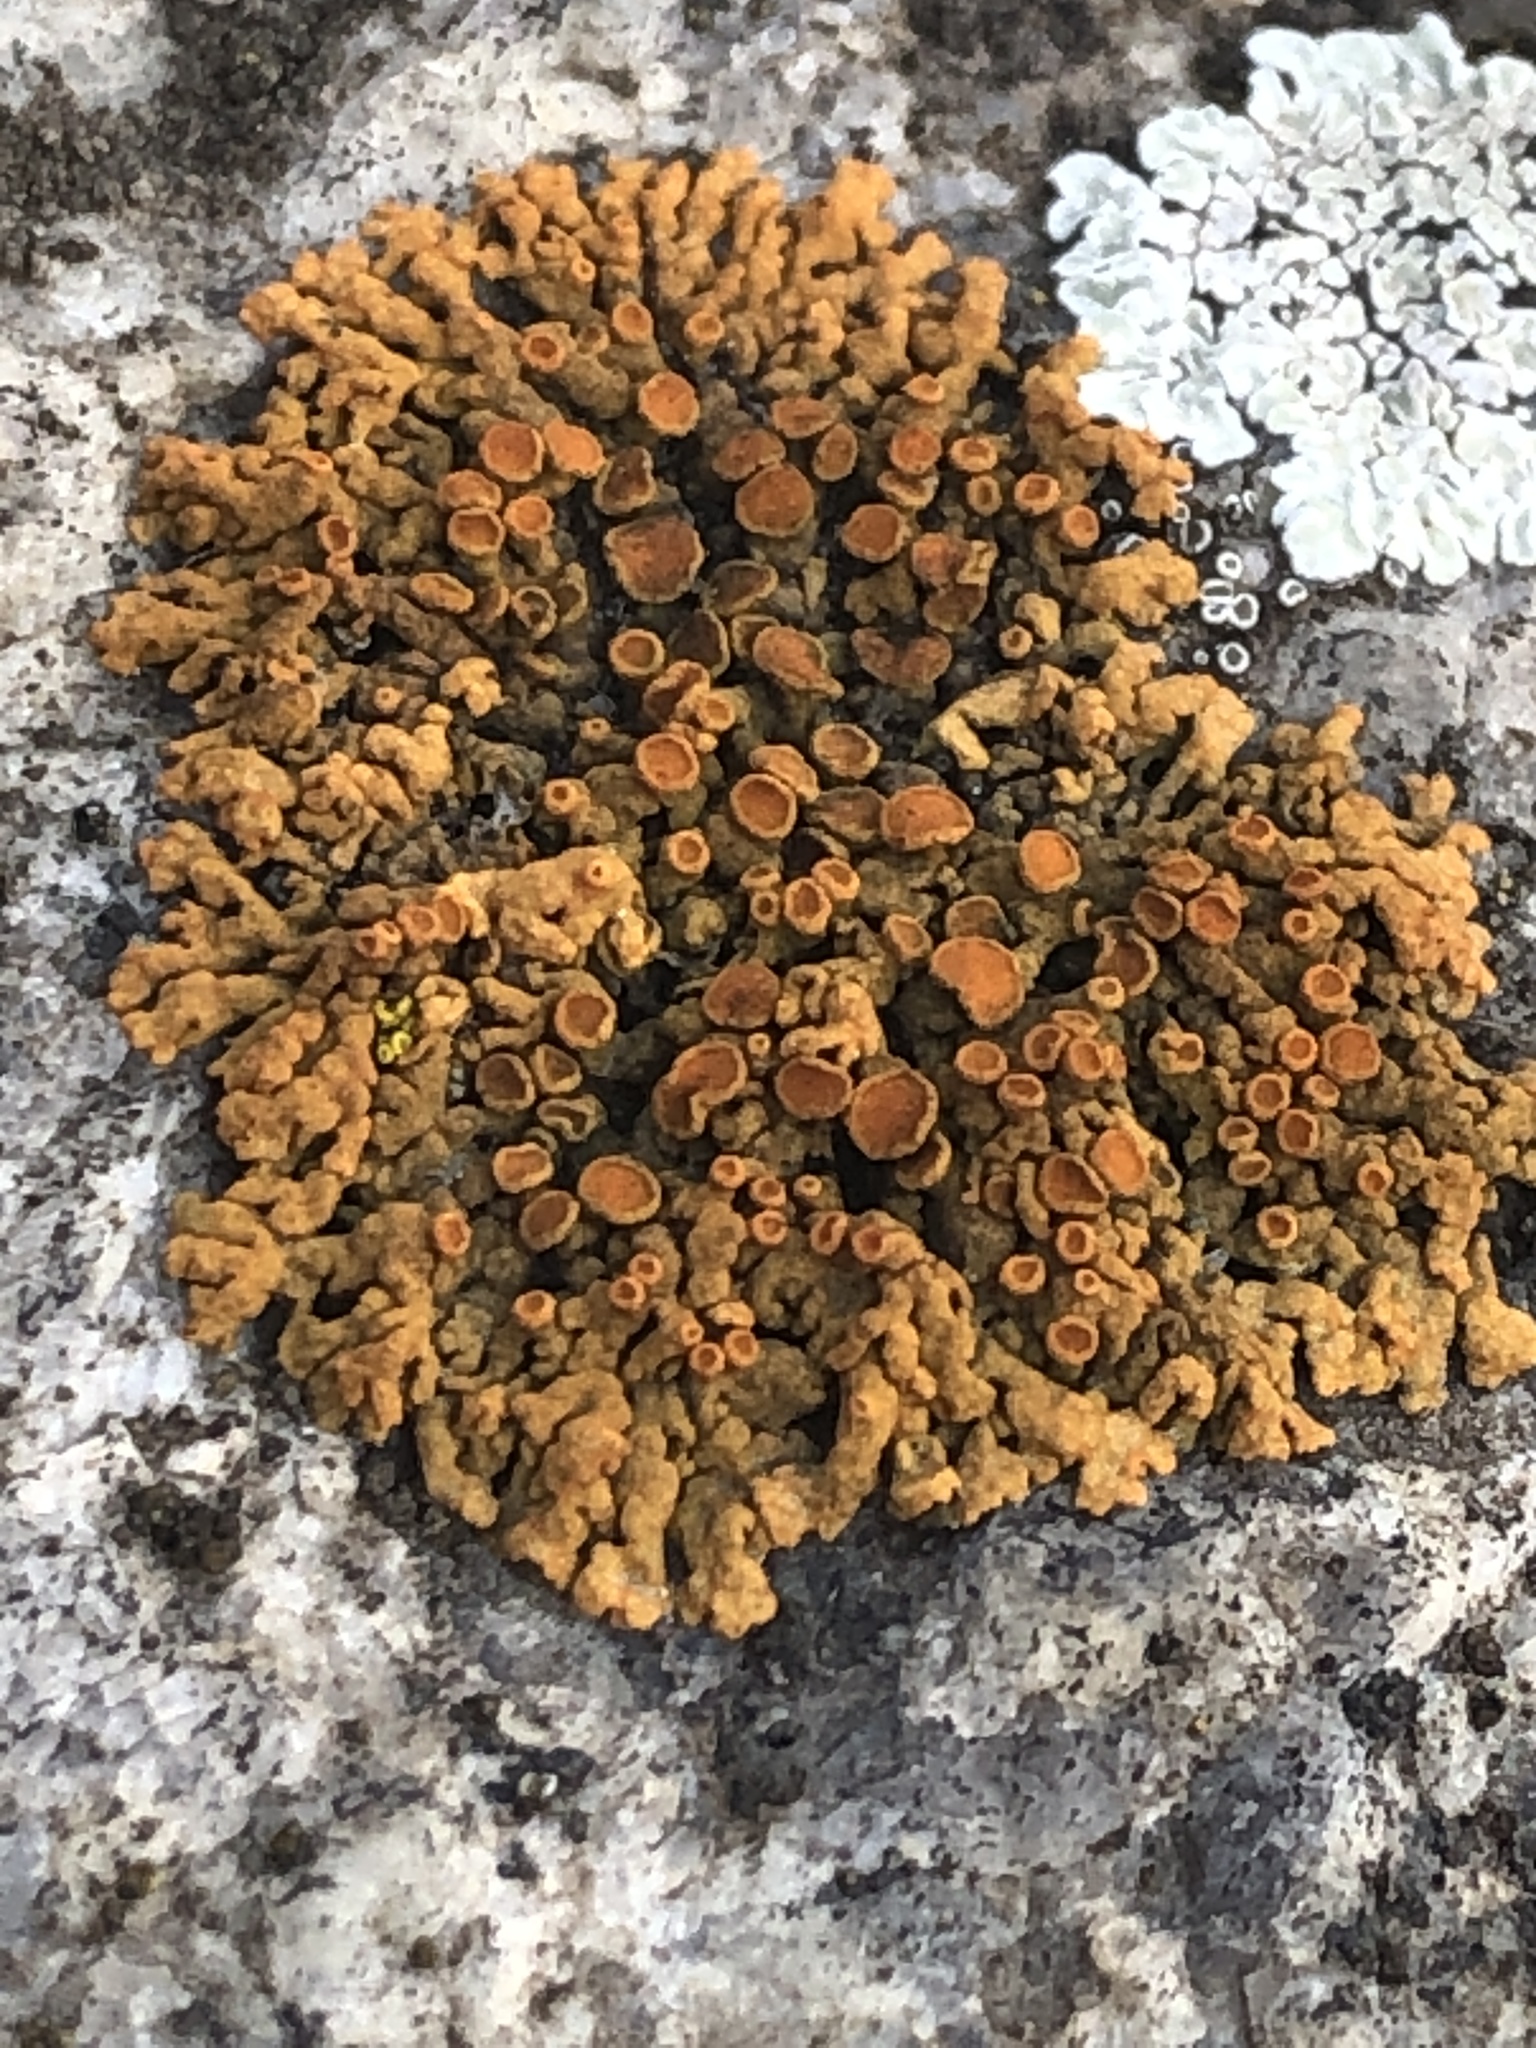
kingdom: Fungi
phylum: Ascomycota
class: Lecanoromycetes
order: Teloschistales
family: Teloschistaceae
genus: Xanthoria
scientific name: Xanthoria elegans
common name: Elegant sunburst lichen
